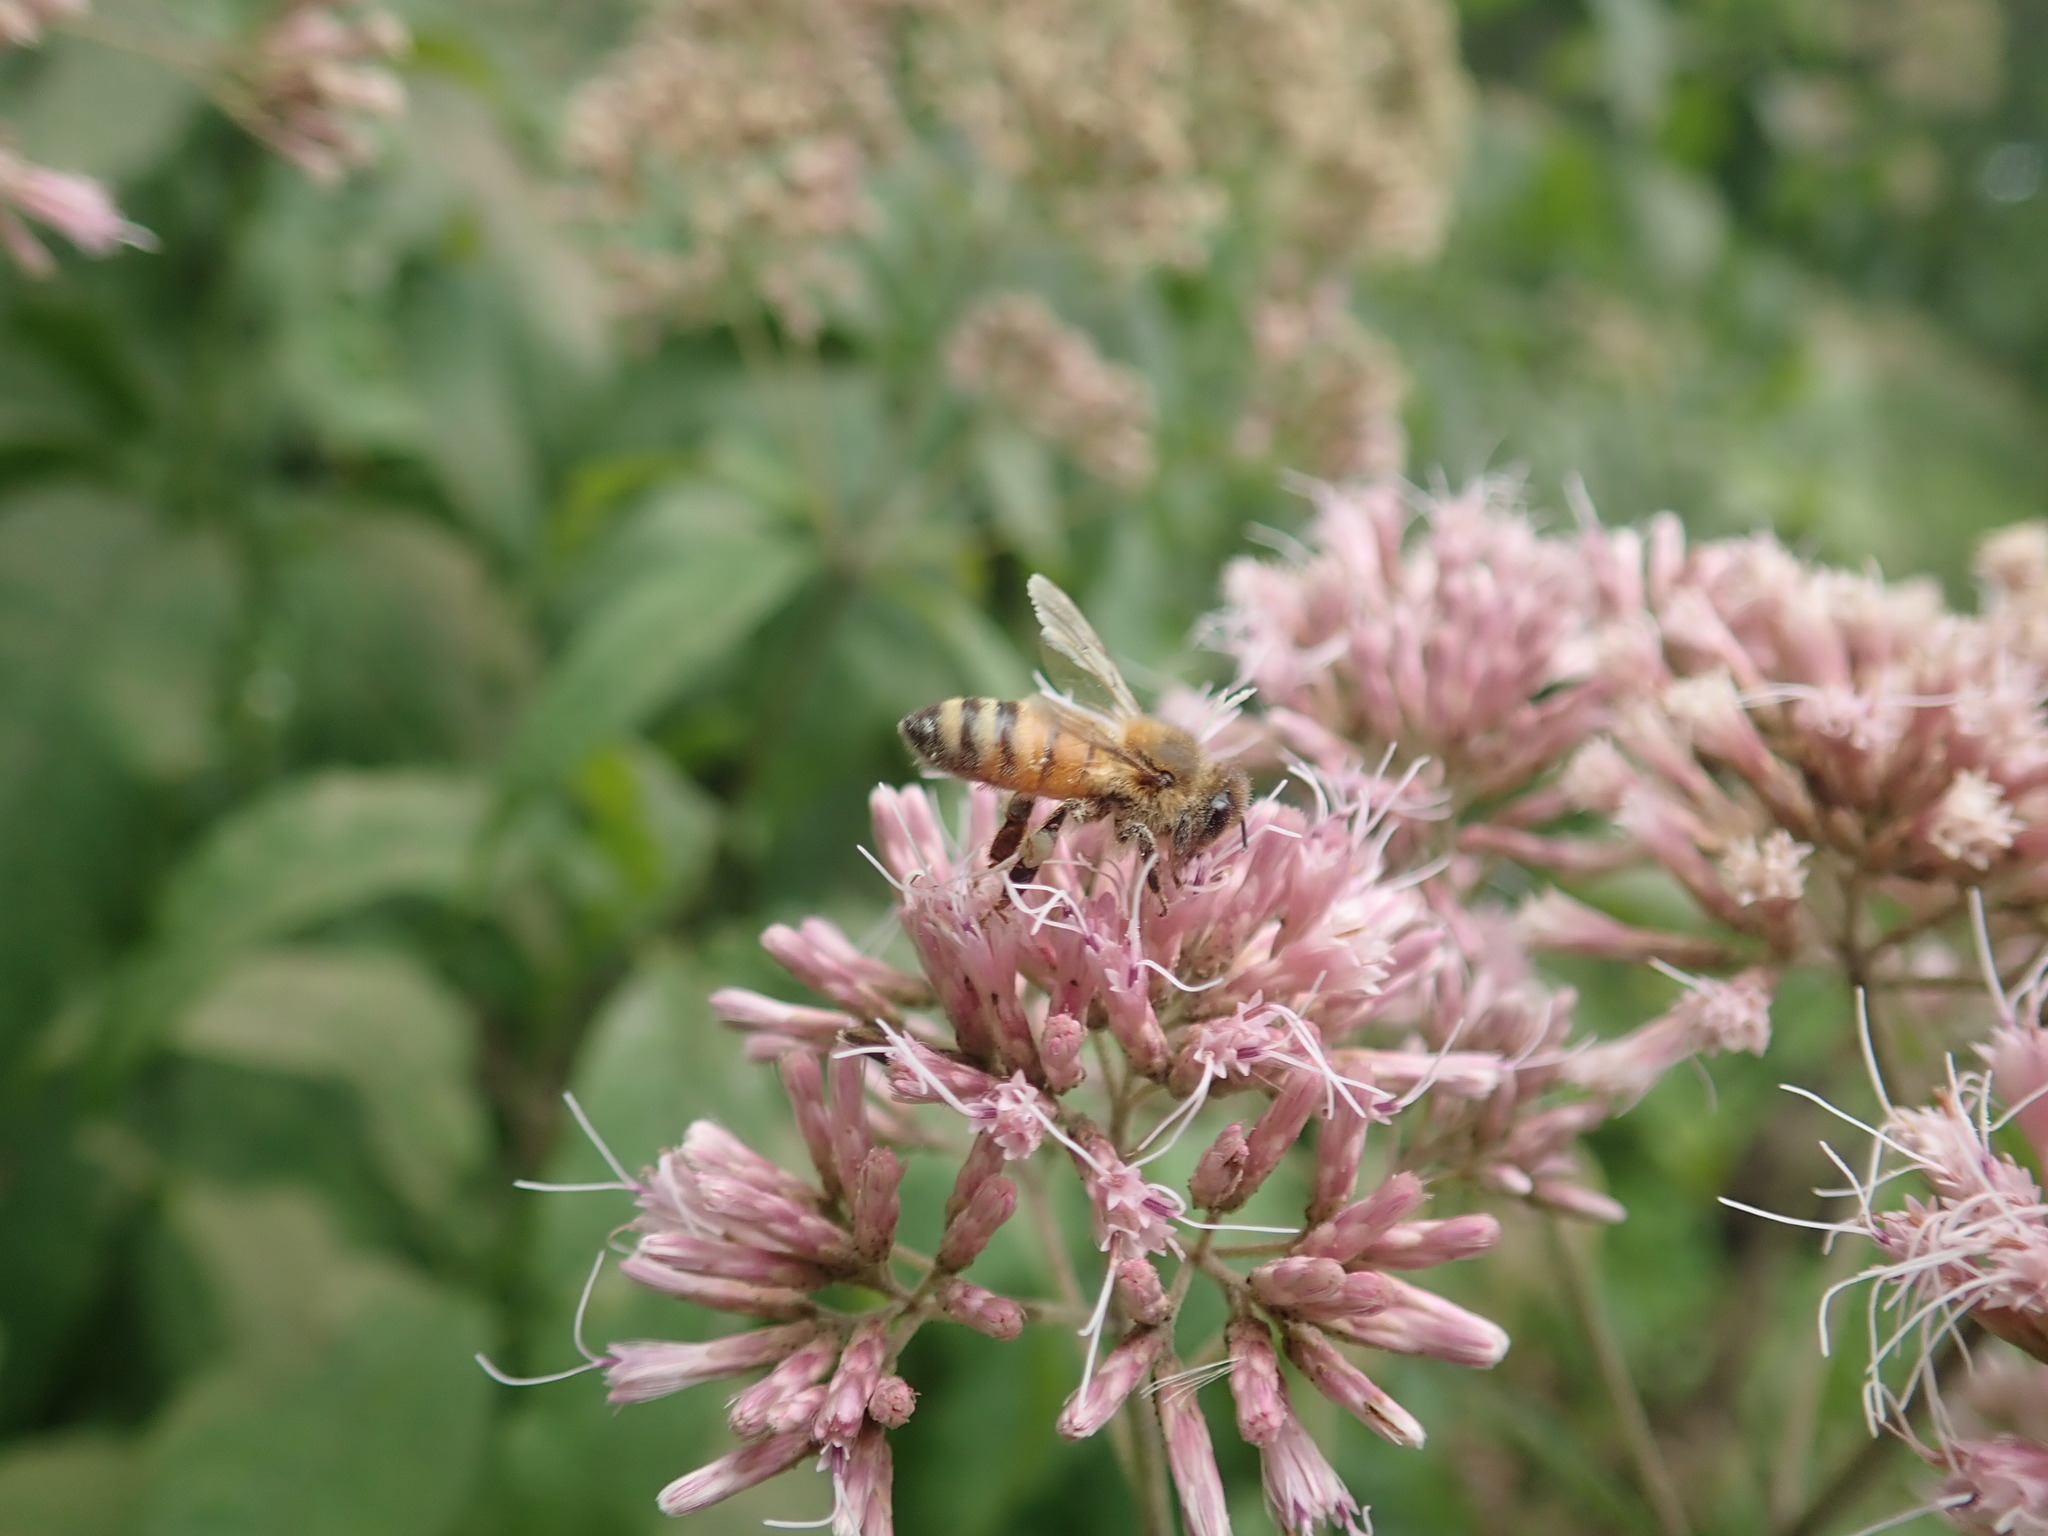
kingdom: Animalia
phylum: Arthropoda
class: Insecta
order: Hymenoptera
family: Apidae
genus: Apis
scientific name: Apis mellifera
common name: Honey bee
